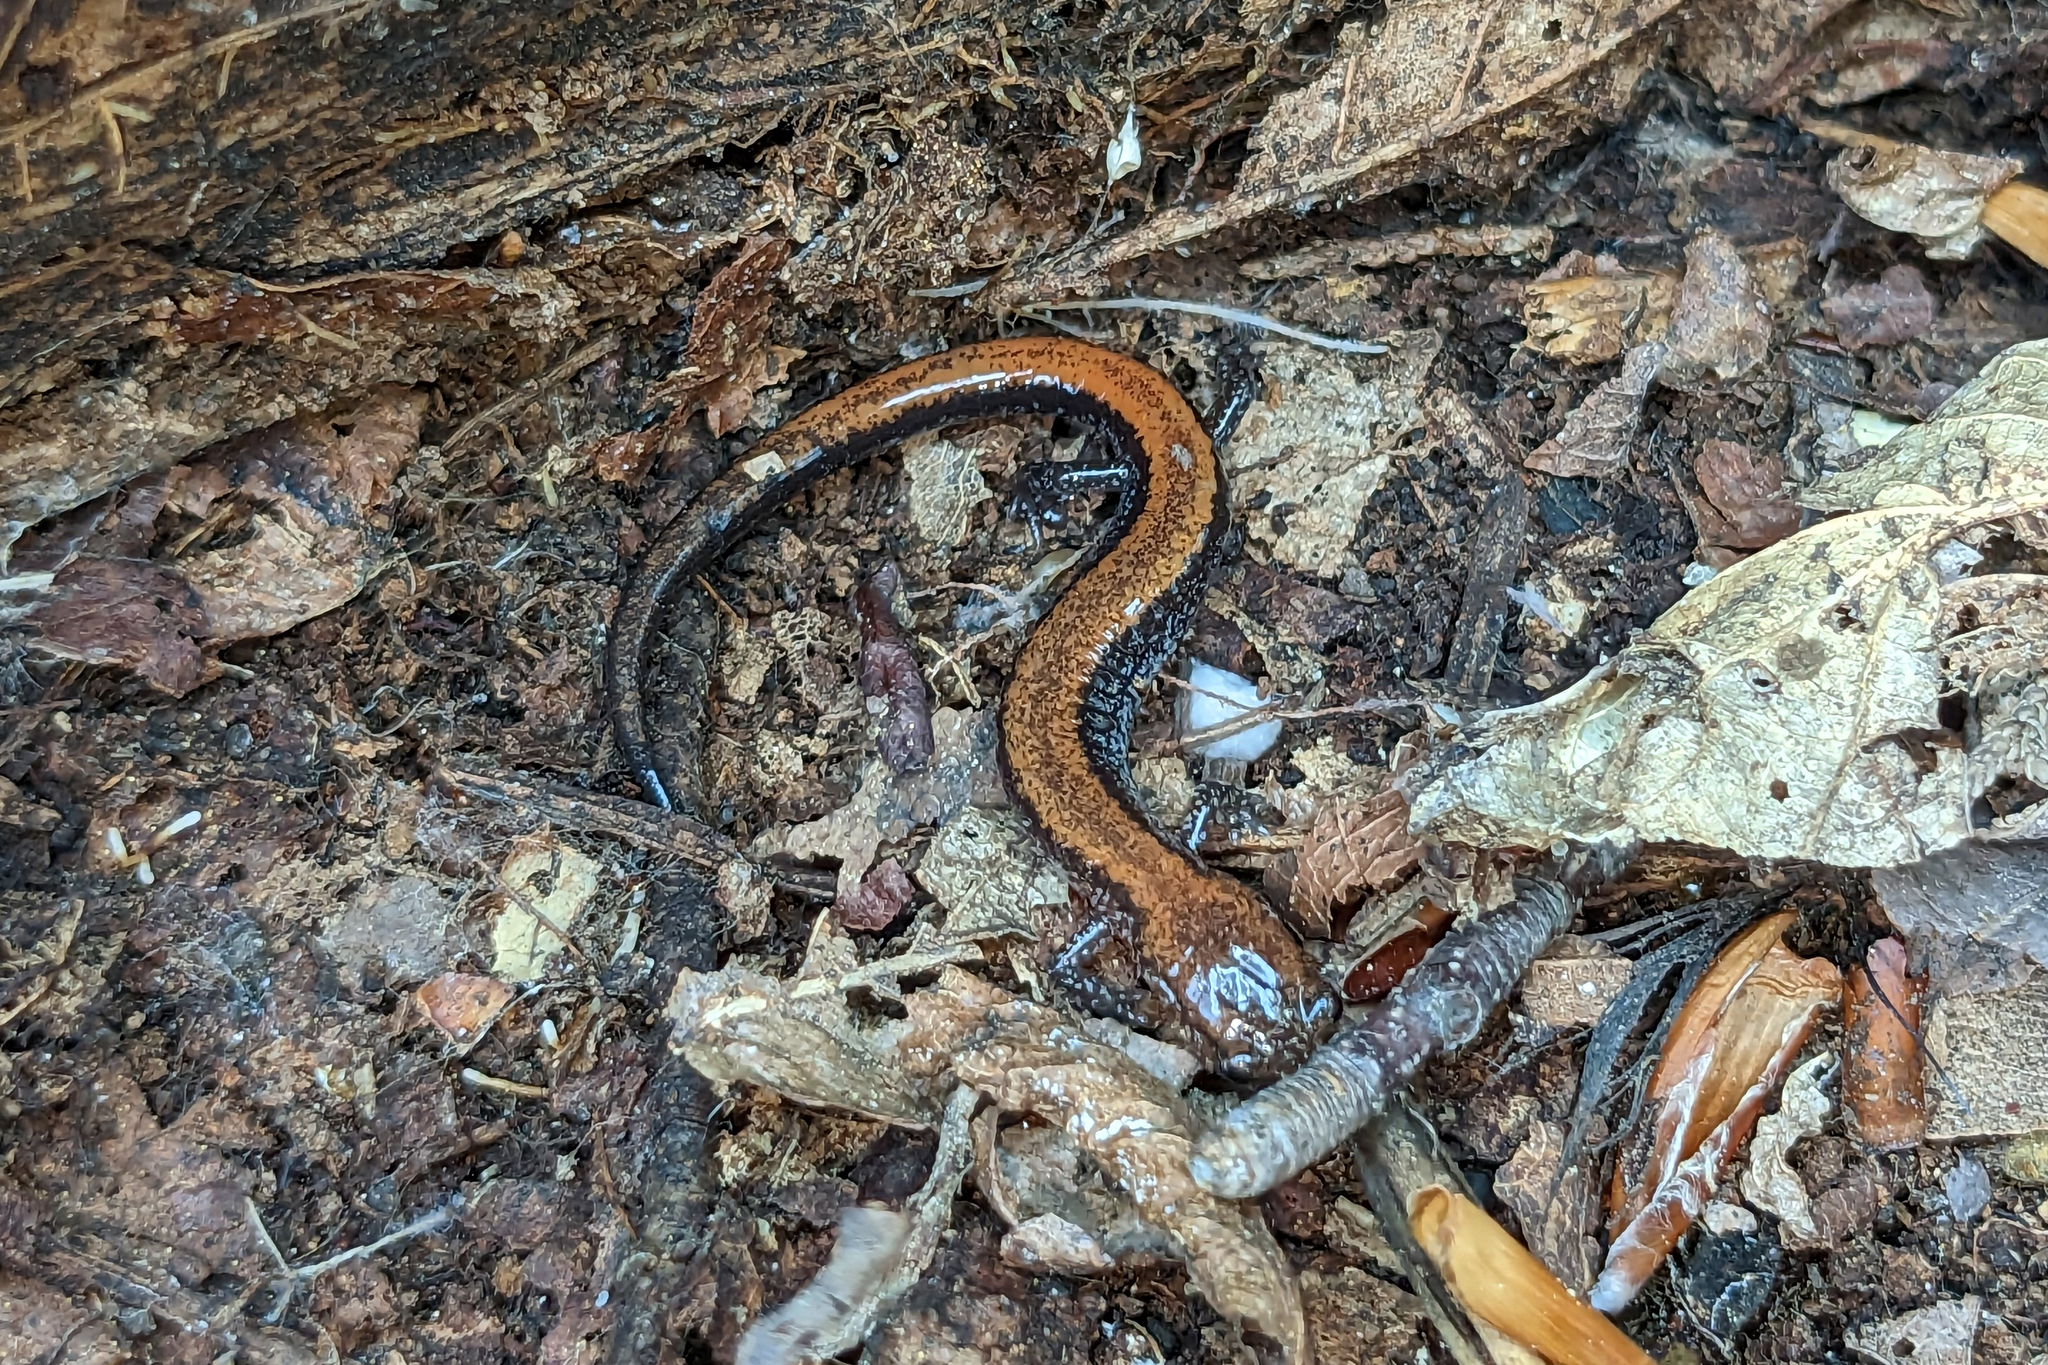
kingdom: Animalia
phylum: Chordata
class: Amphibia
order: Caudata
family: Plethodontidae
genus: Plethodon
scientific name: Plethodon cinereus
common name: Redback salamander
